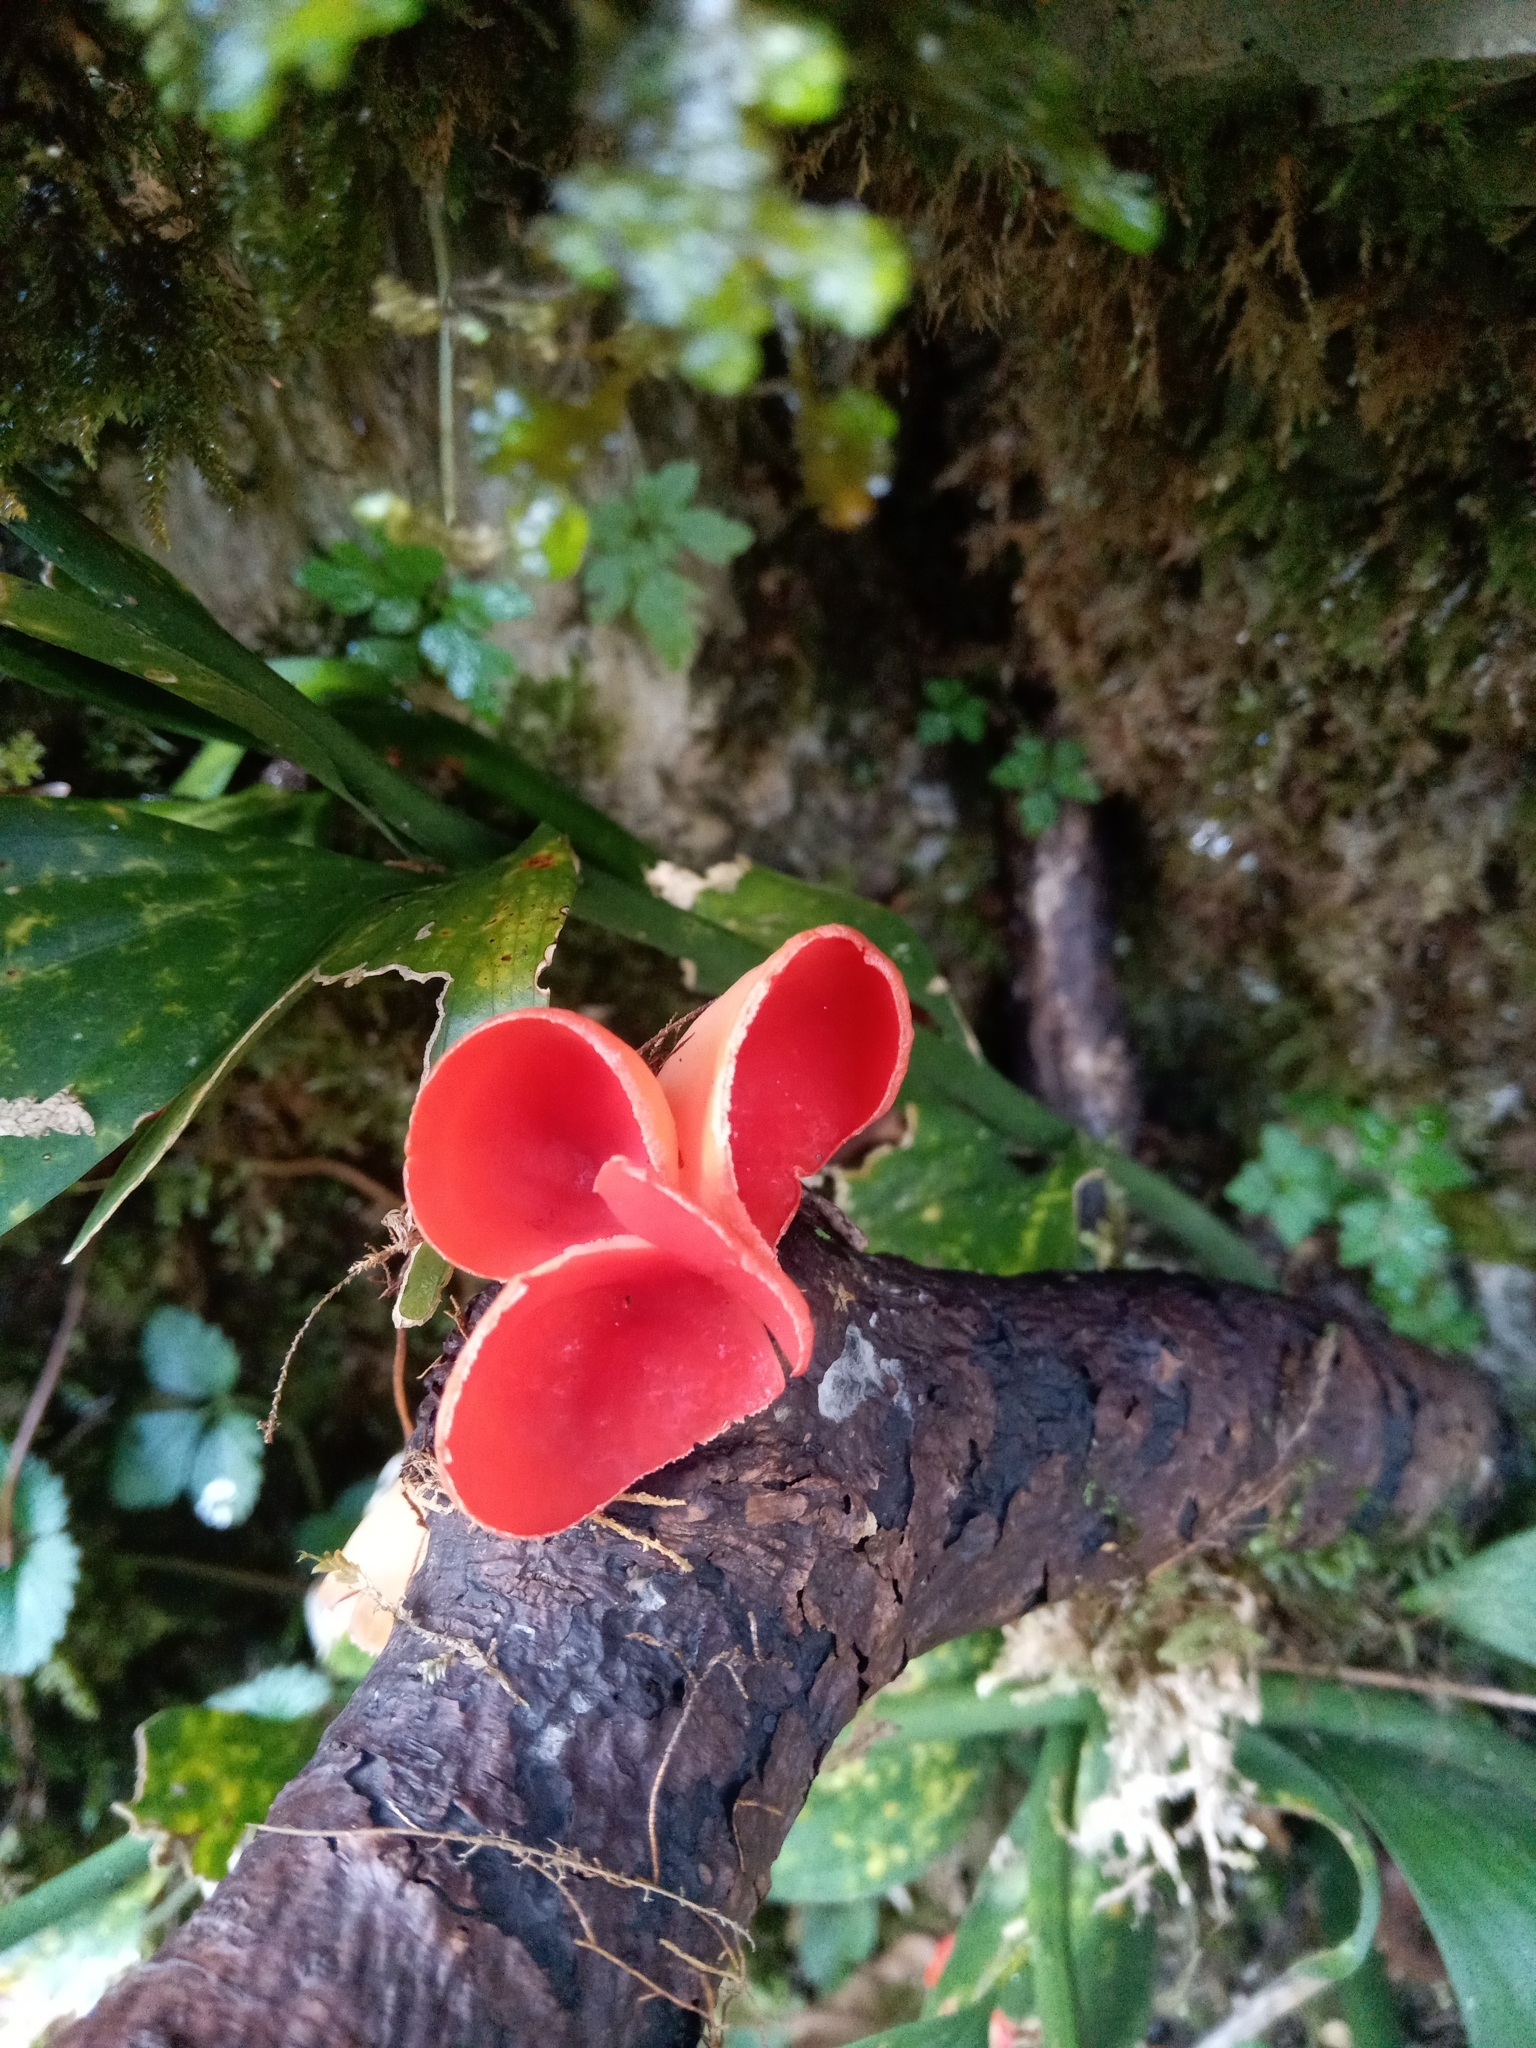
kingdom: Fungi
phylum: Ascomycota
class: Pezizomycetes
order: Pezizales
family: Sarcoscyphaceae
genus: Sarcoscypha
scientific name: Sarcoscypha
